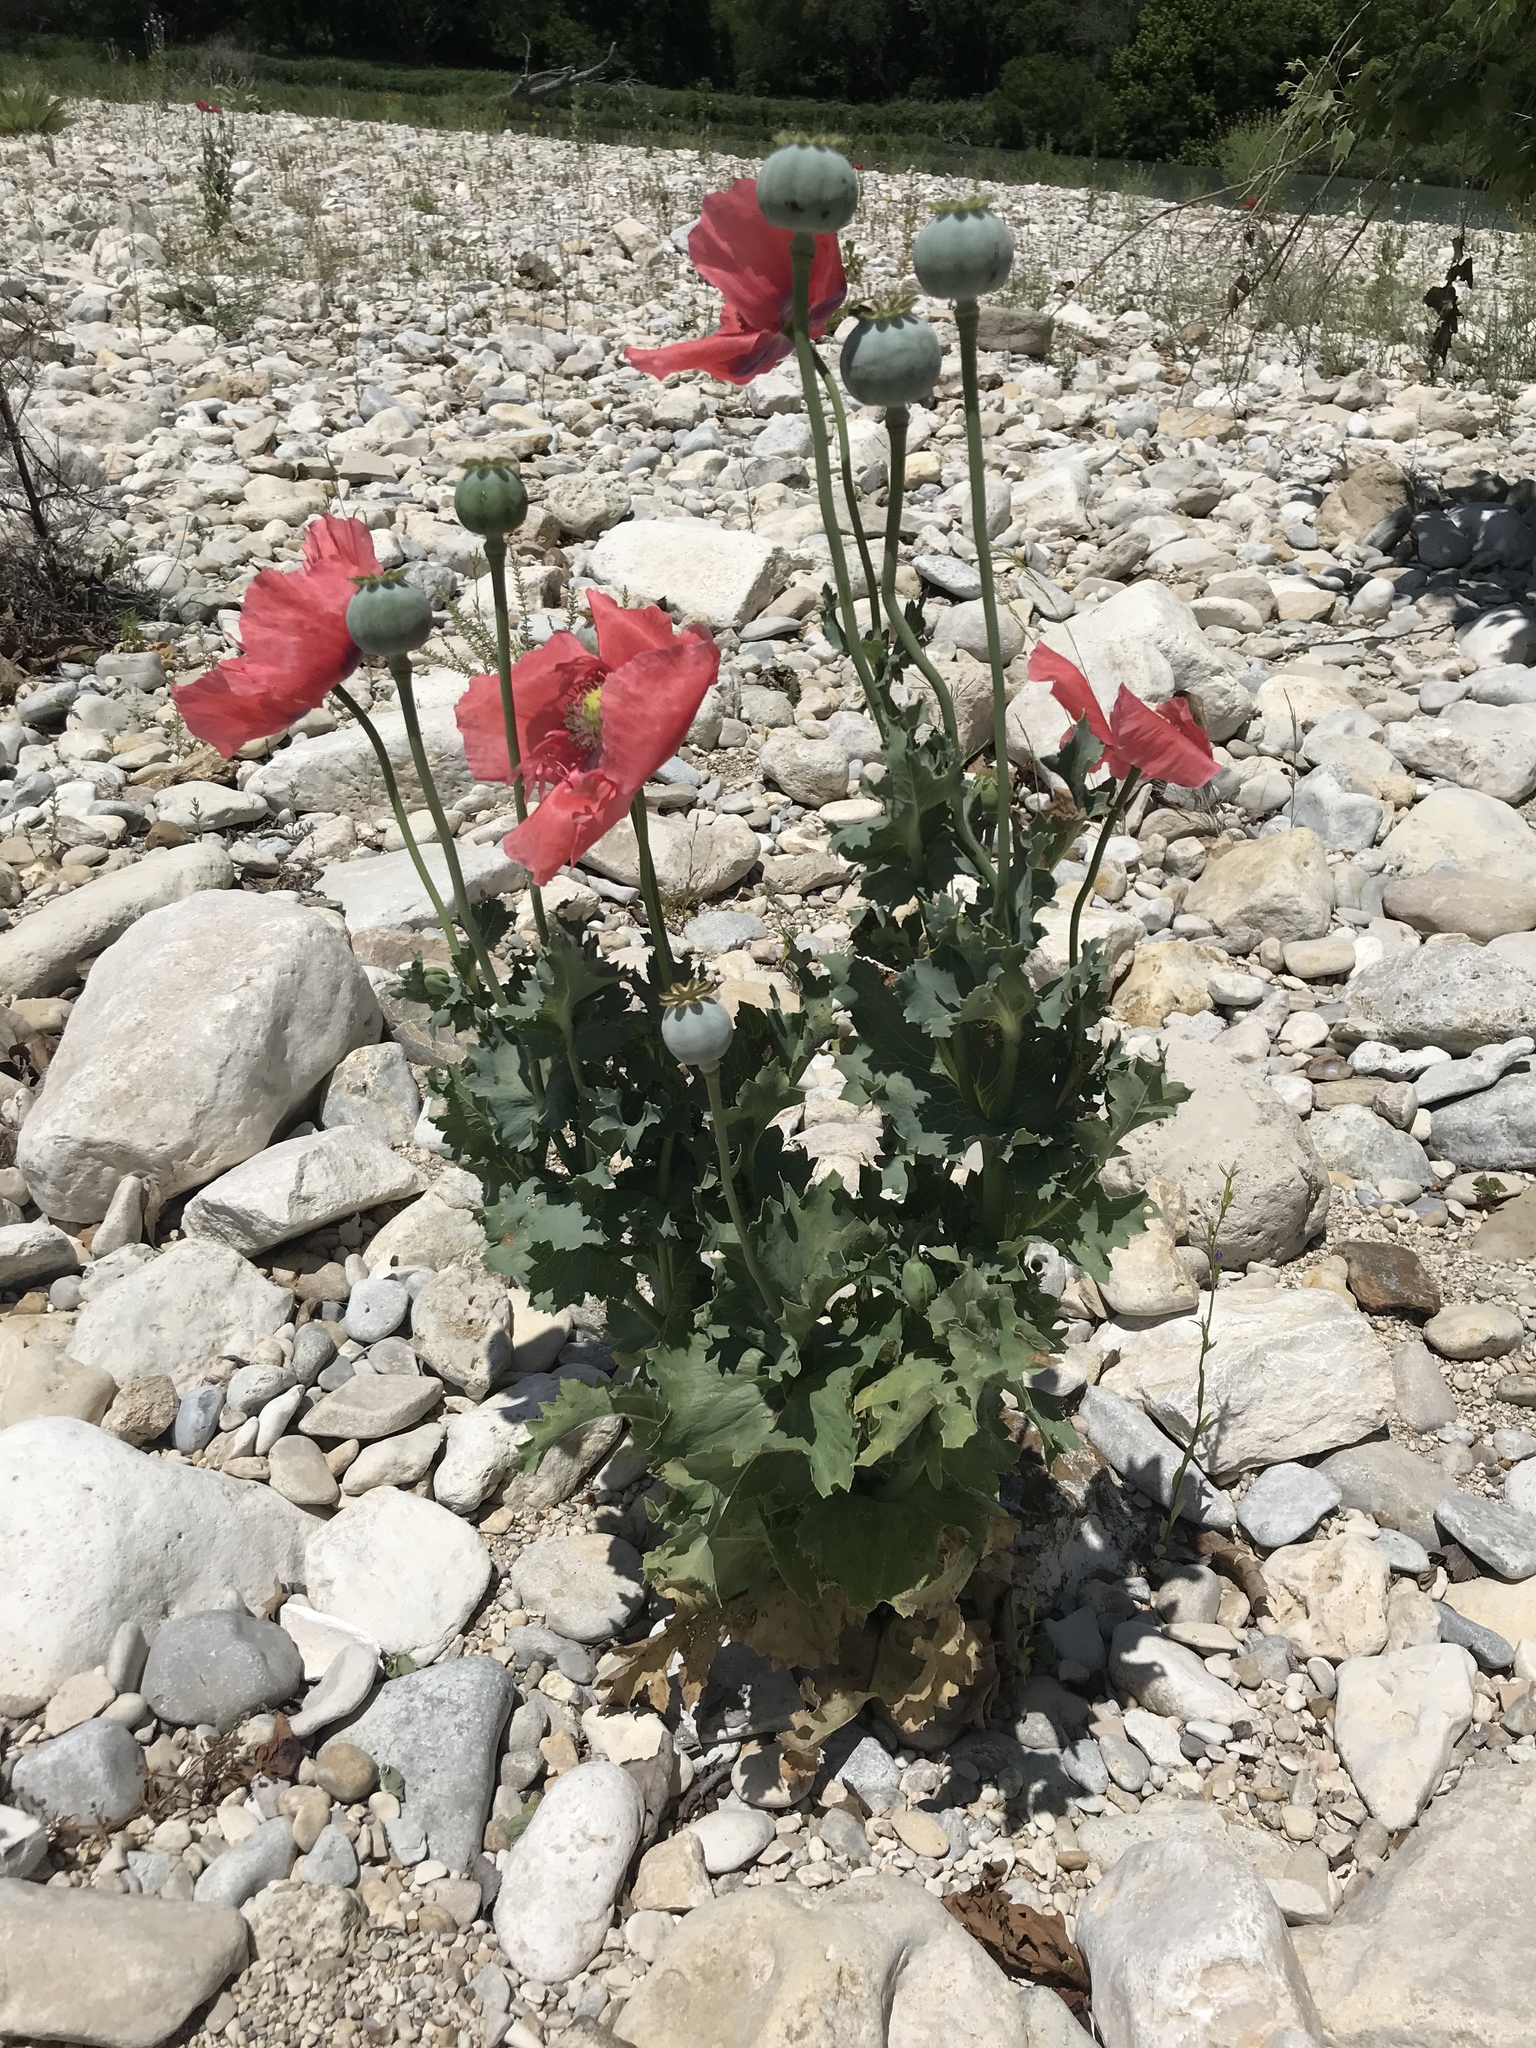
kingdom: Plantae
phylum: Tracheophyta
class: Magnoliopsida
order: Ranunculales
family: Papaveraceae
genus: Papaver
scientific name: Papaver somniferum
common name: Opium poppy
